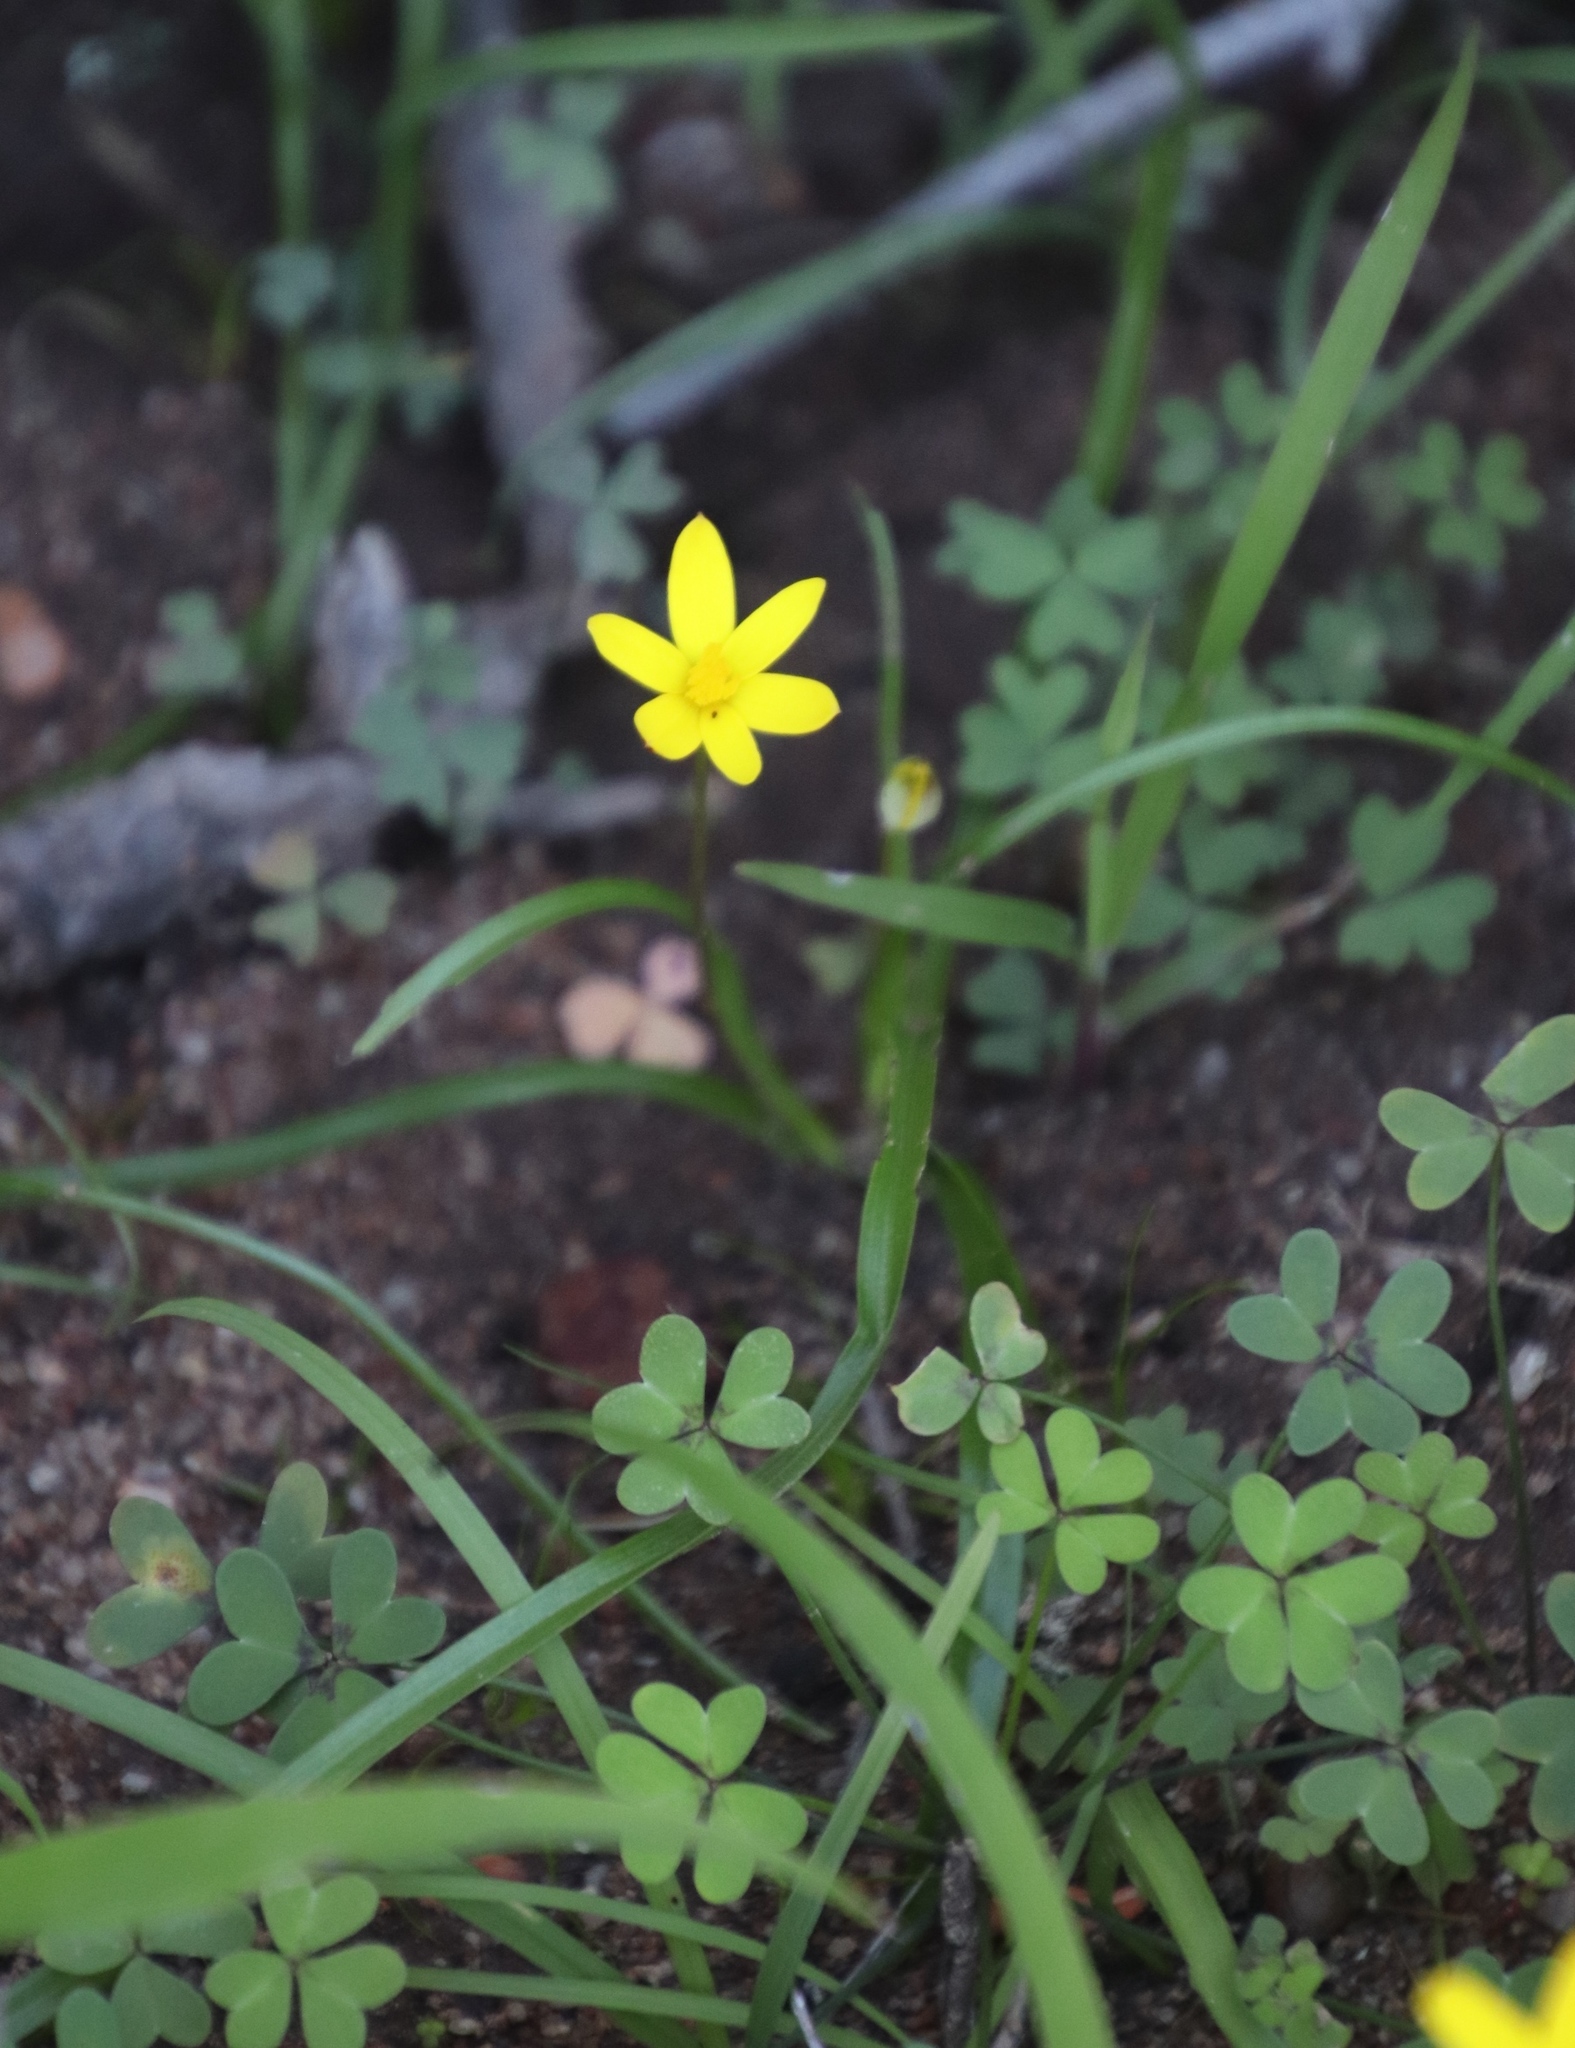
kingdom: Plantae
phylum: Tracheophyta
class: Liliopsida
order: Asparagales
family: Hypoxidaceae
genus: Pauridia
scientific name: Pauridia gracilipes
